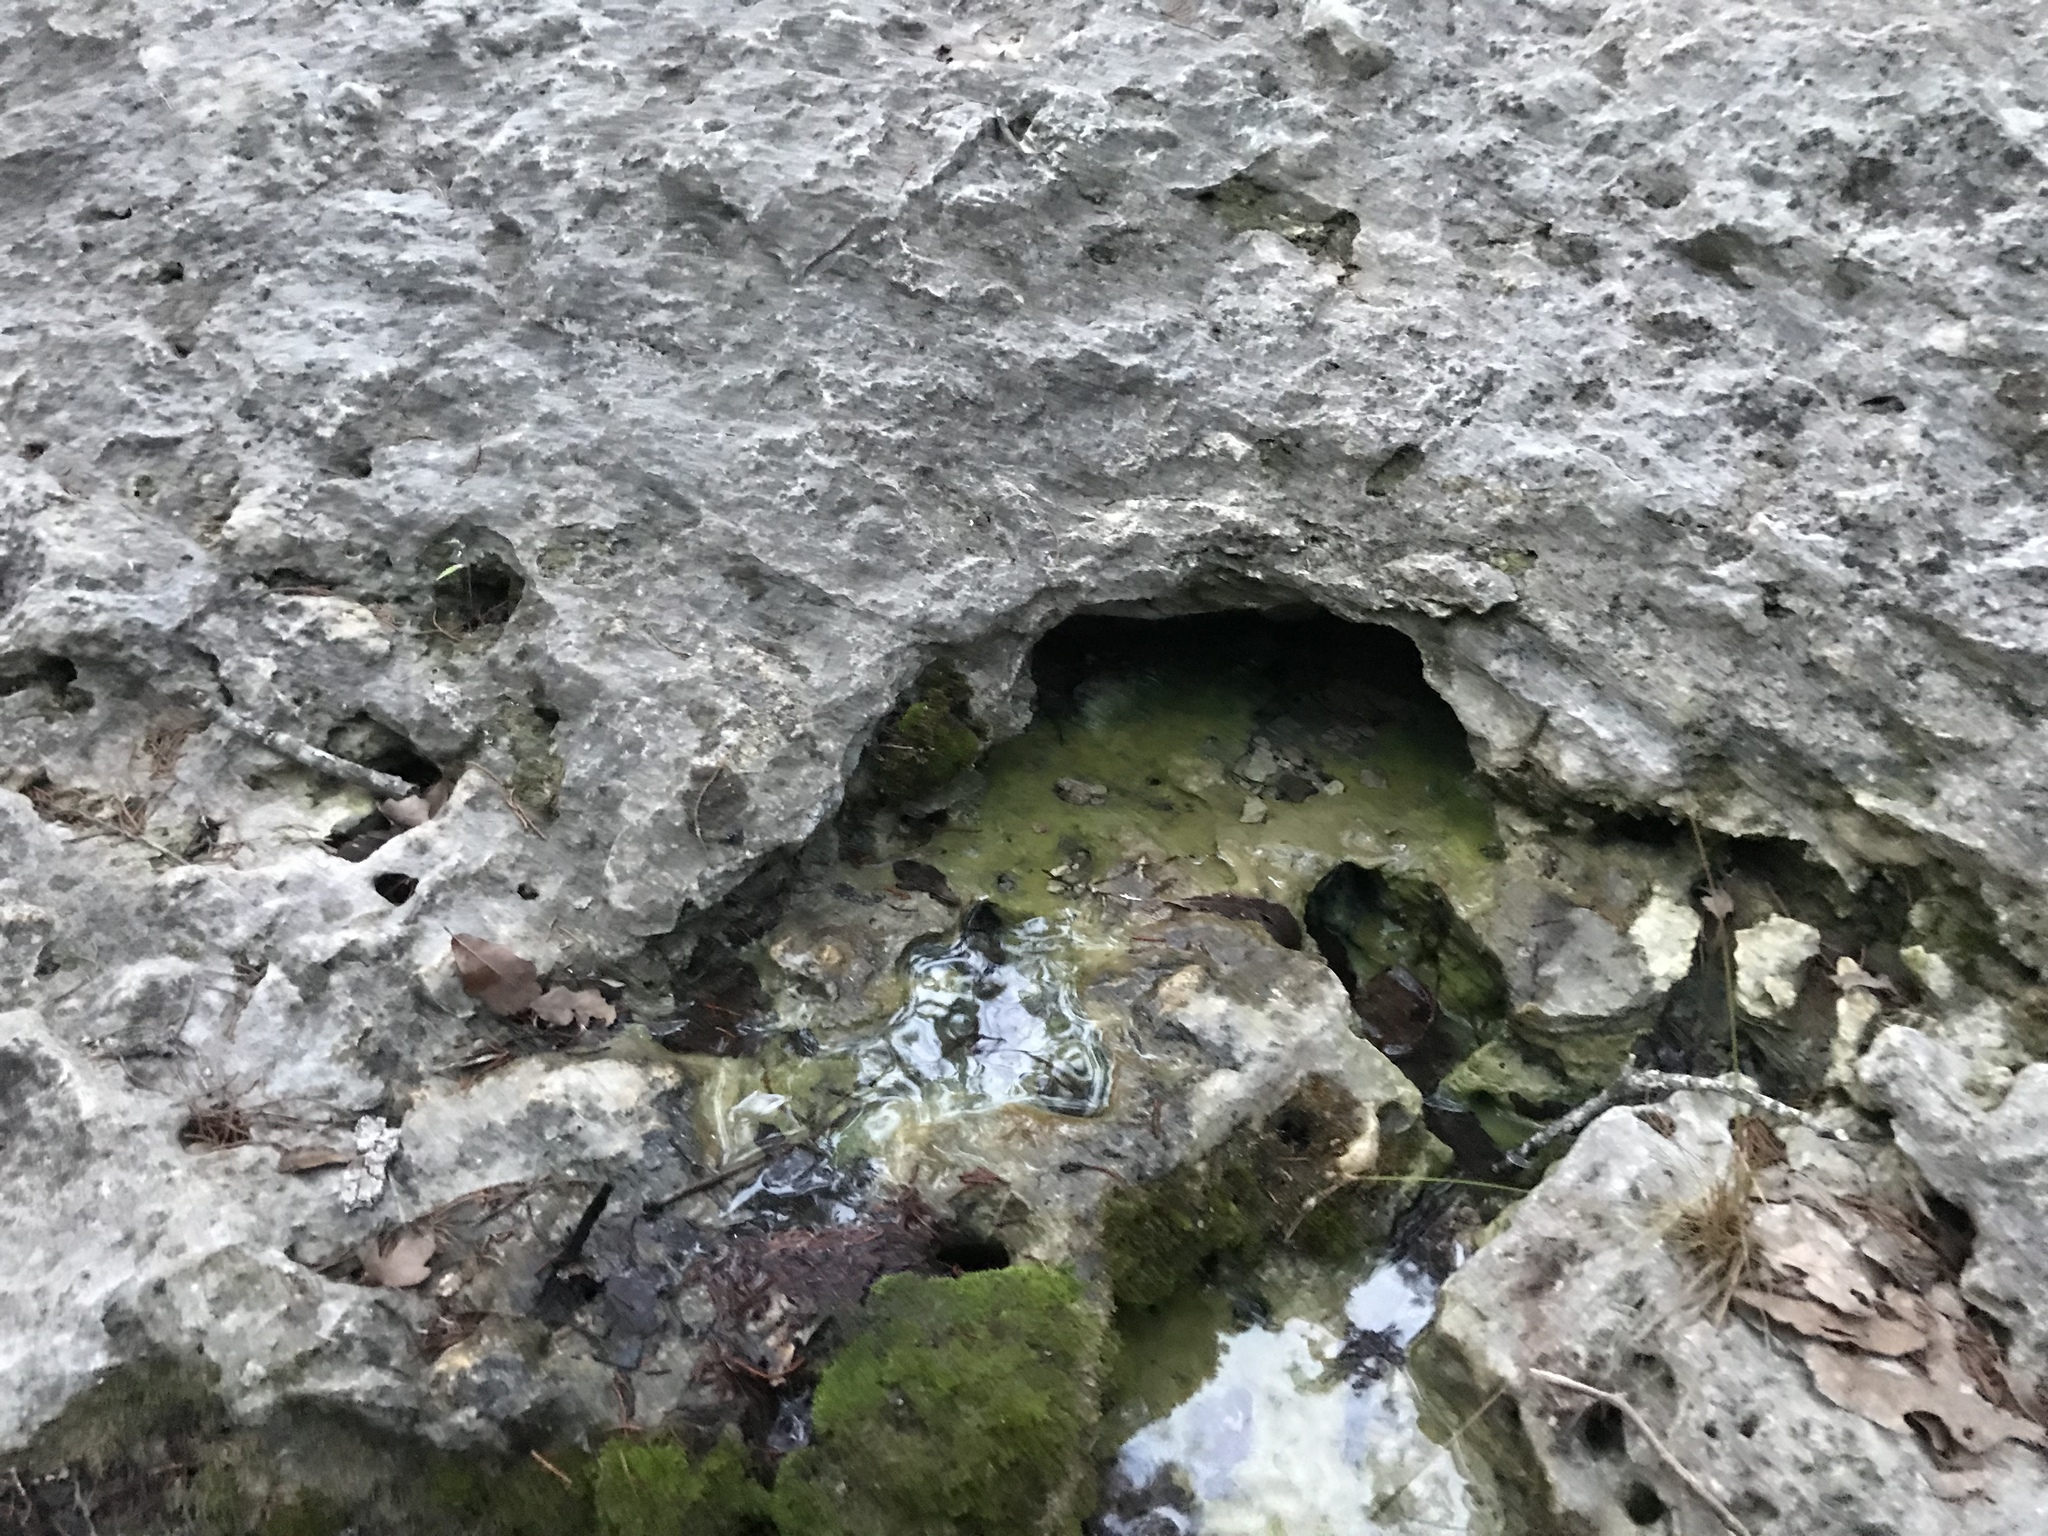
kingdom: Animalia
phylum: Chordata
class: Amphibia
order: Anura
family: Ranidae
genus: Lithobates
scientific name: Lithobates berlandieri
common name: Rio grande leopard frog
